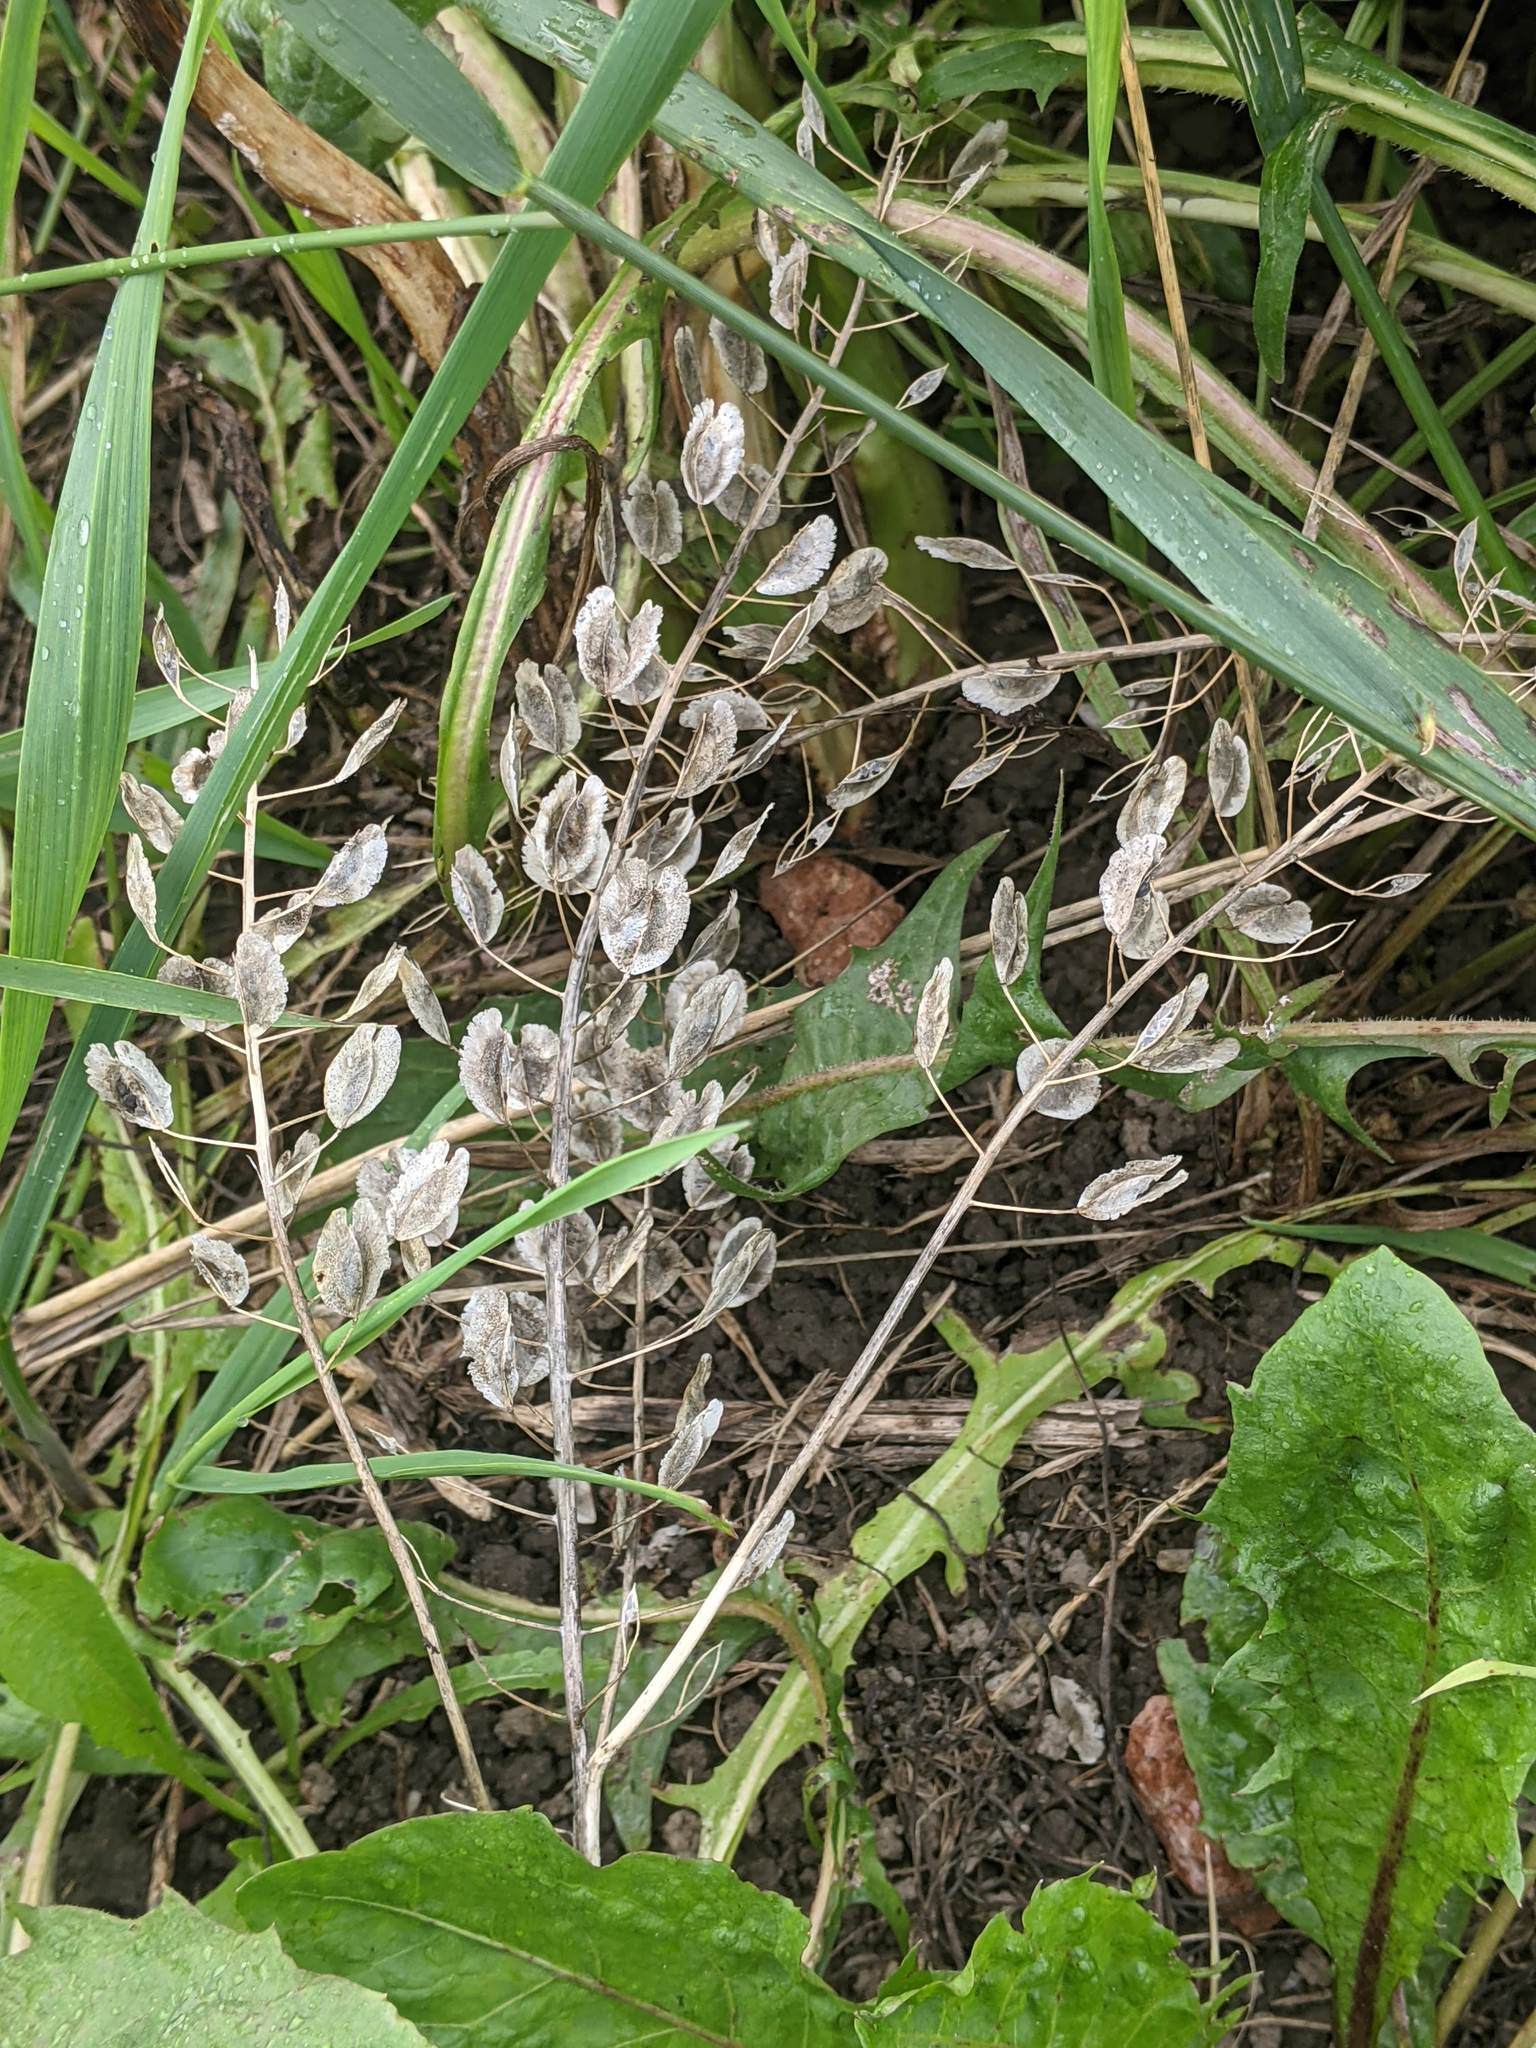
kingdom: Plantae
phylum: Tracheophyta
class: Magnoliopsida
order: Brassicales
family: Brassicaceae
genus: Thlaspi
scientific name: Thlaspi arvense
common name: Field pennycress
